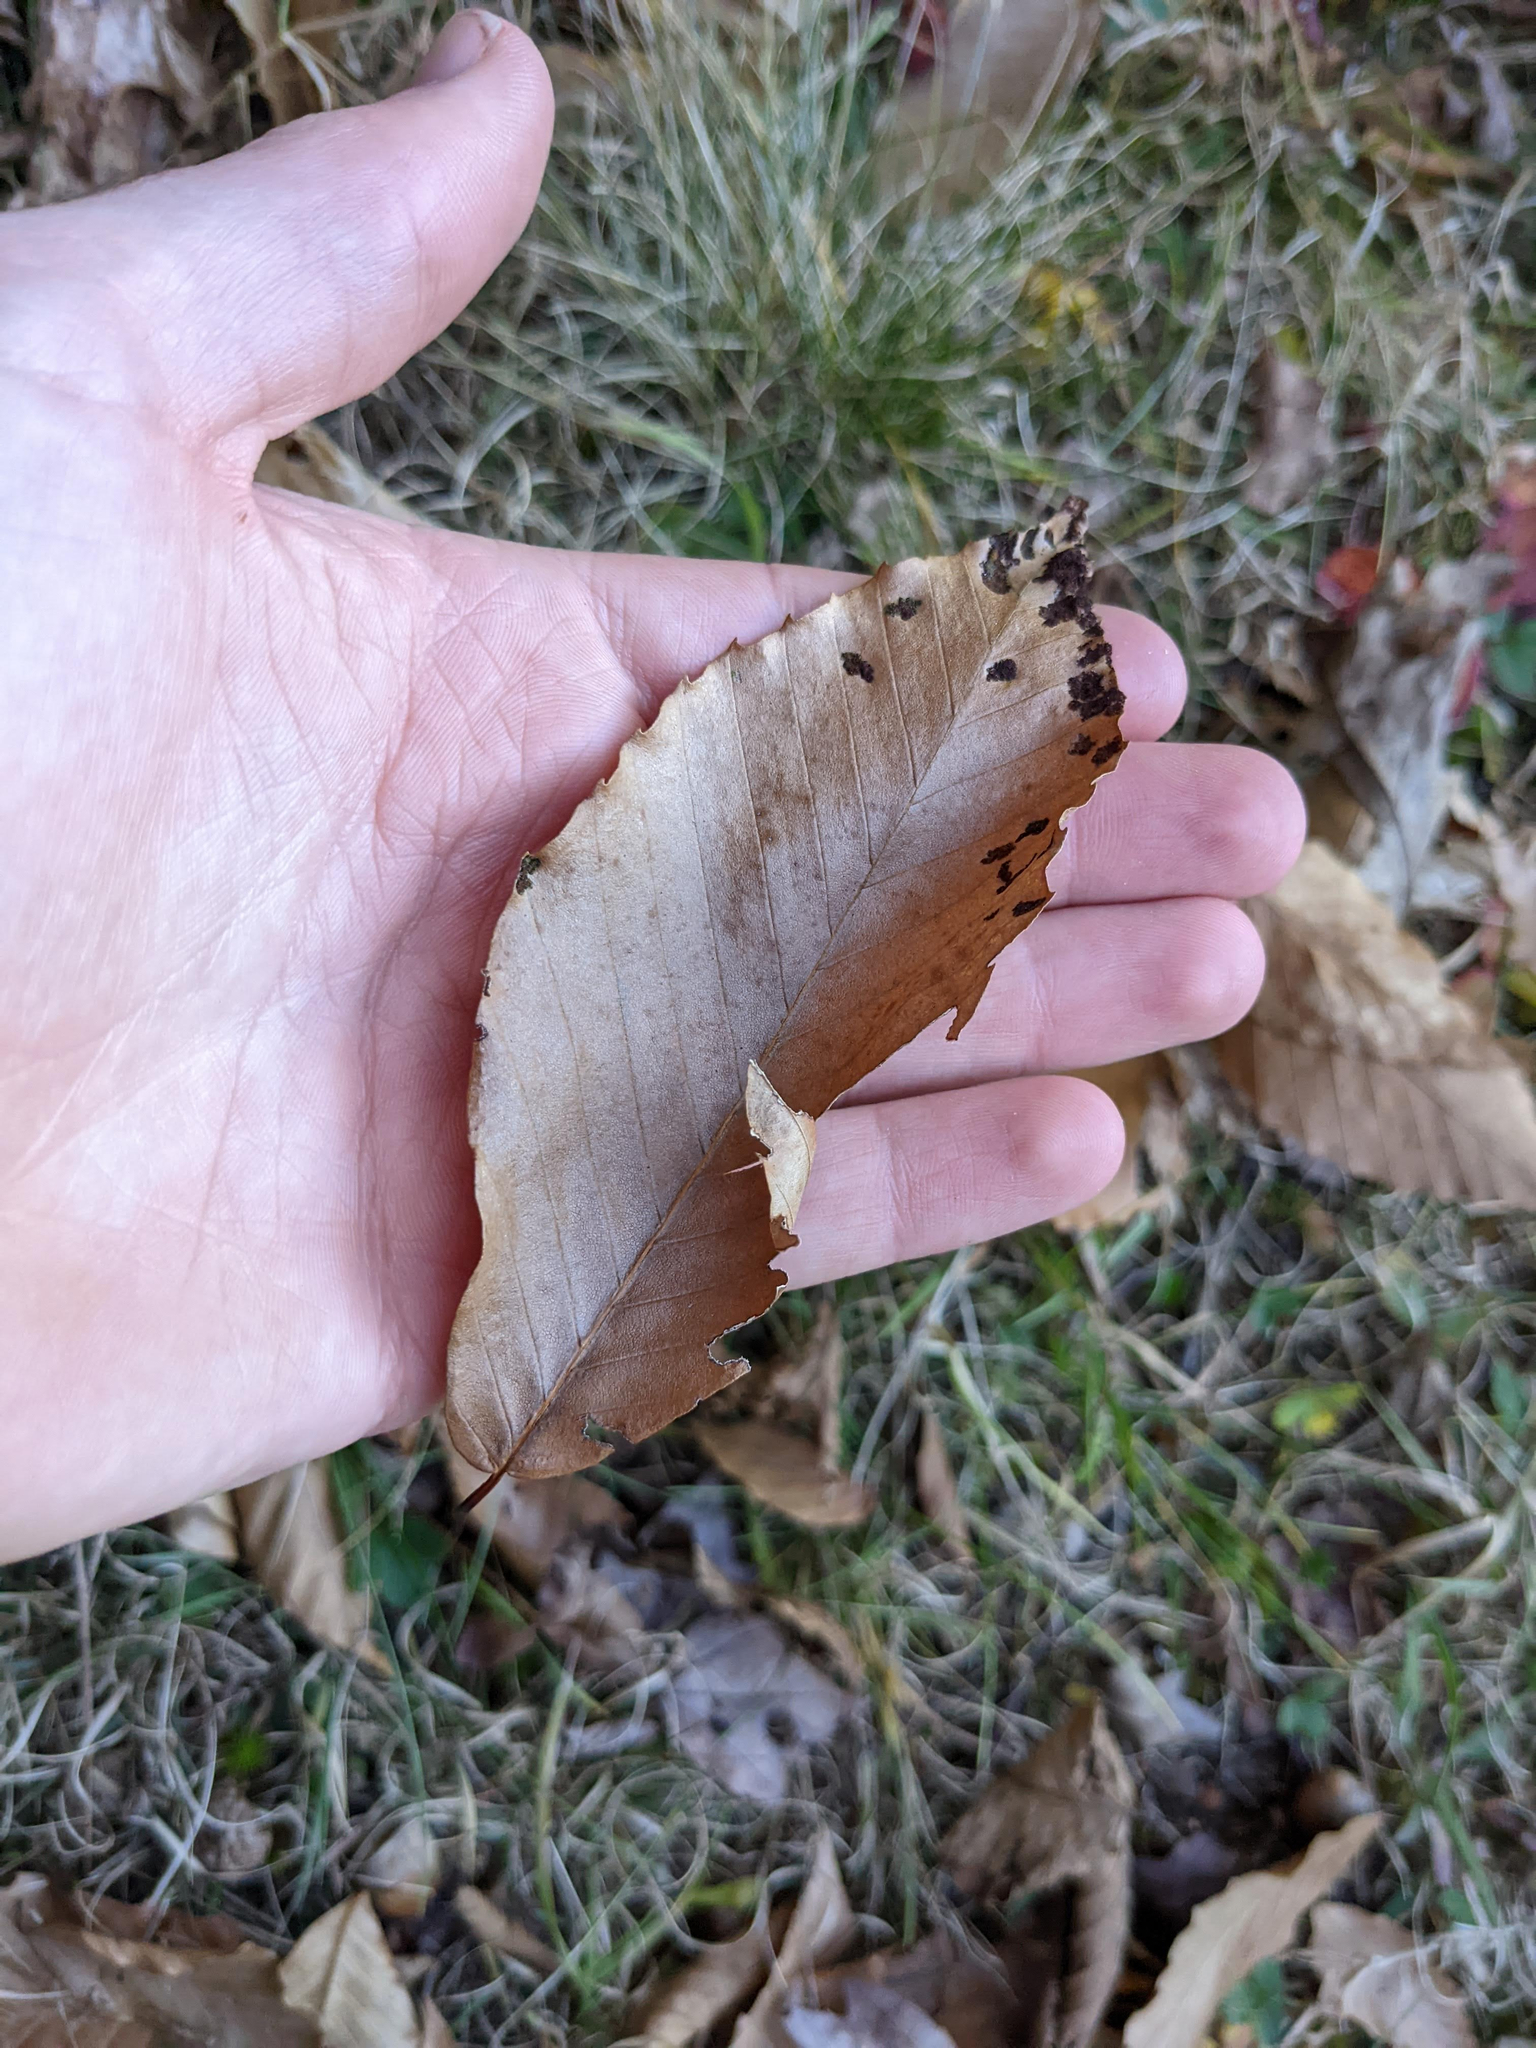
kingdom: Plantae
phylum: Tracheophyta
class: Magnoliopsida
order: Fagales
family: Fagaceae
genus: Fagus
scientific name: Fagus grandifolia
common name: American beech
